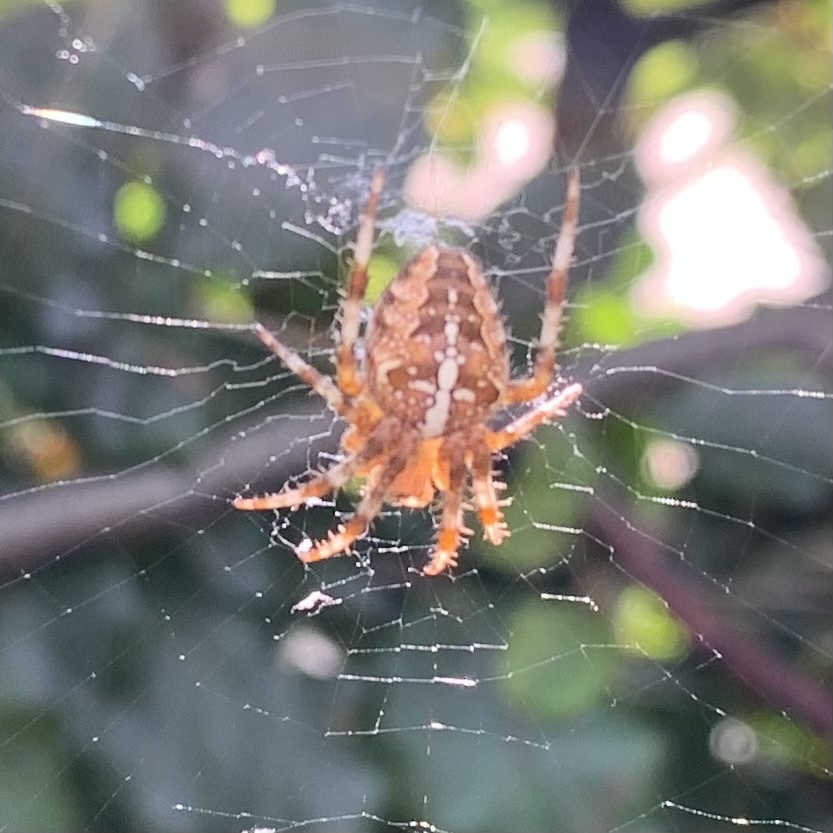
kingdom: Animalia
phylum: Arthropoda
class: Arachnida
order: Araneae
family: Araneidae
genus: Araneus
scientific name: Araneus diadematus
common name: Cross orbweaver
